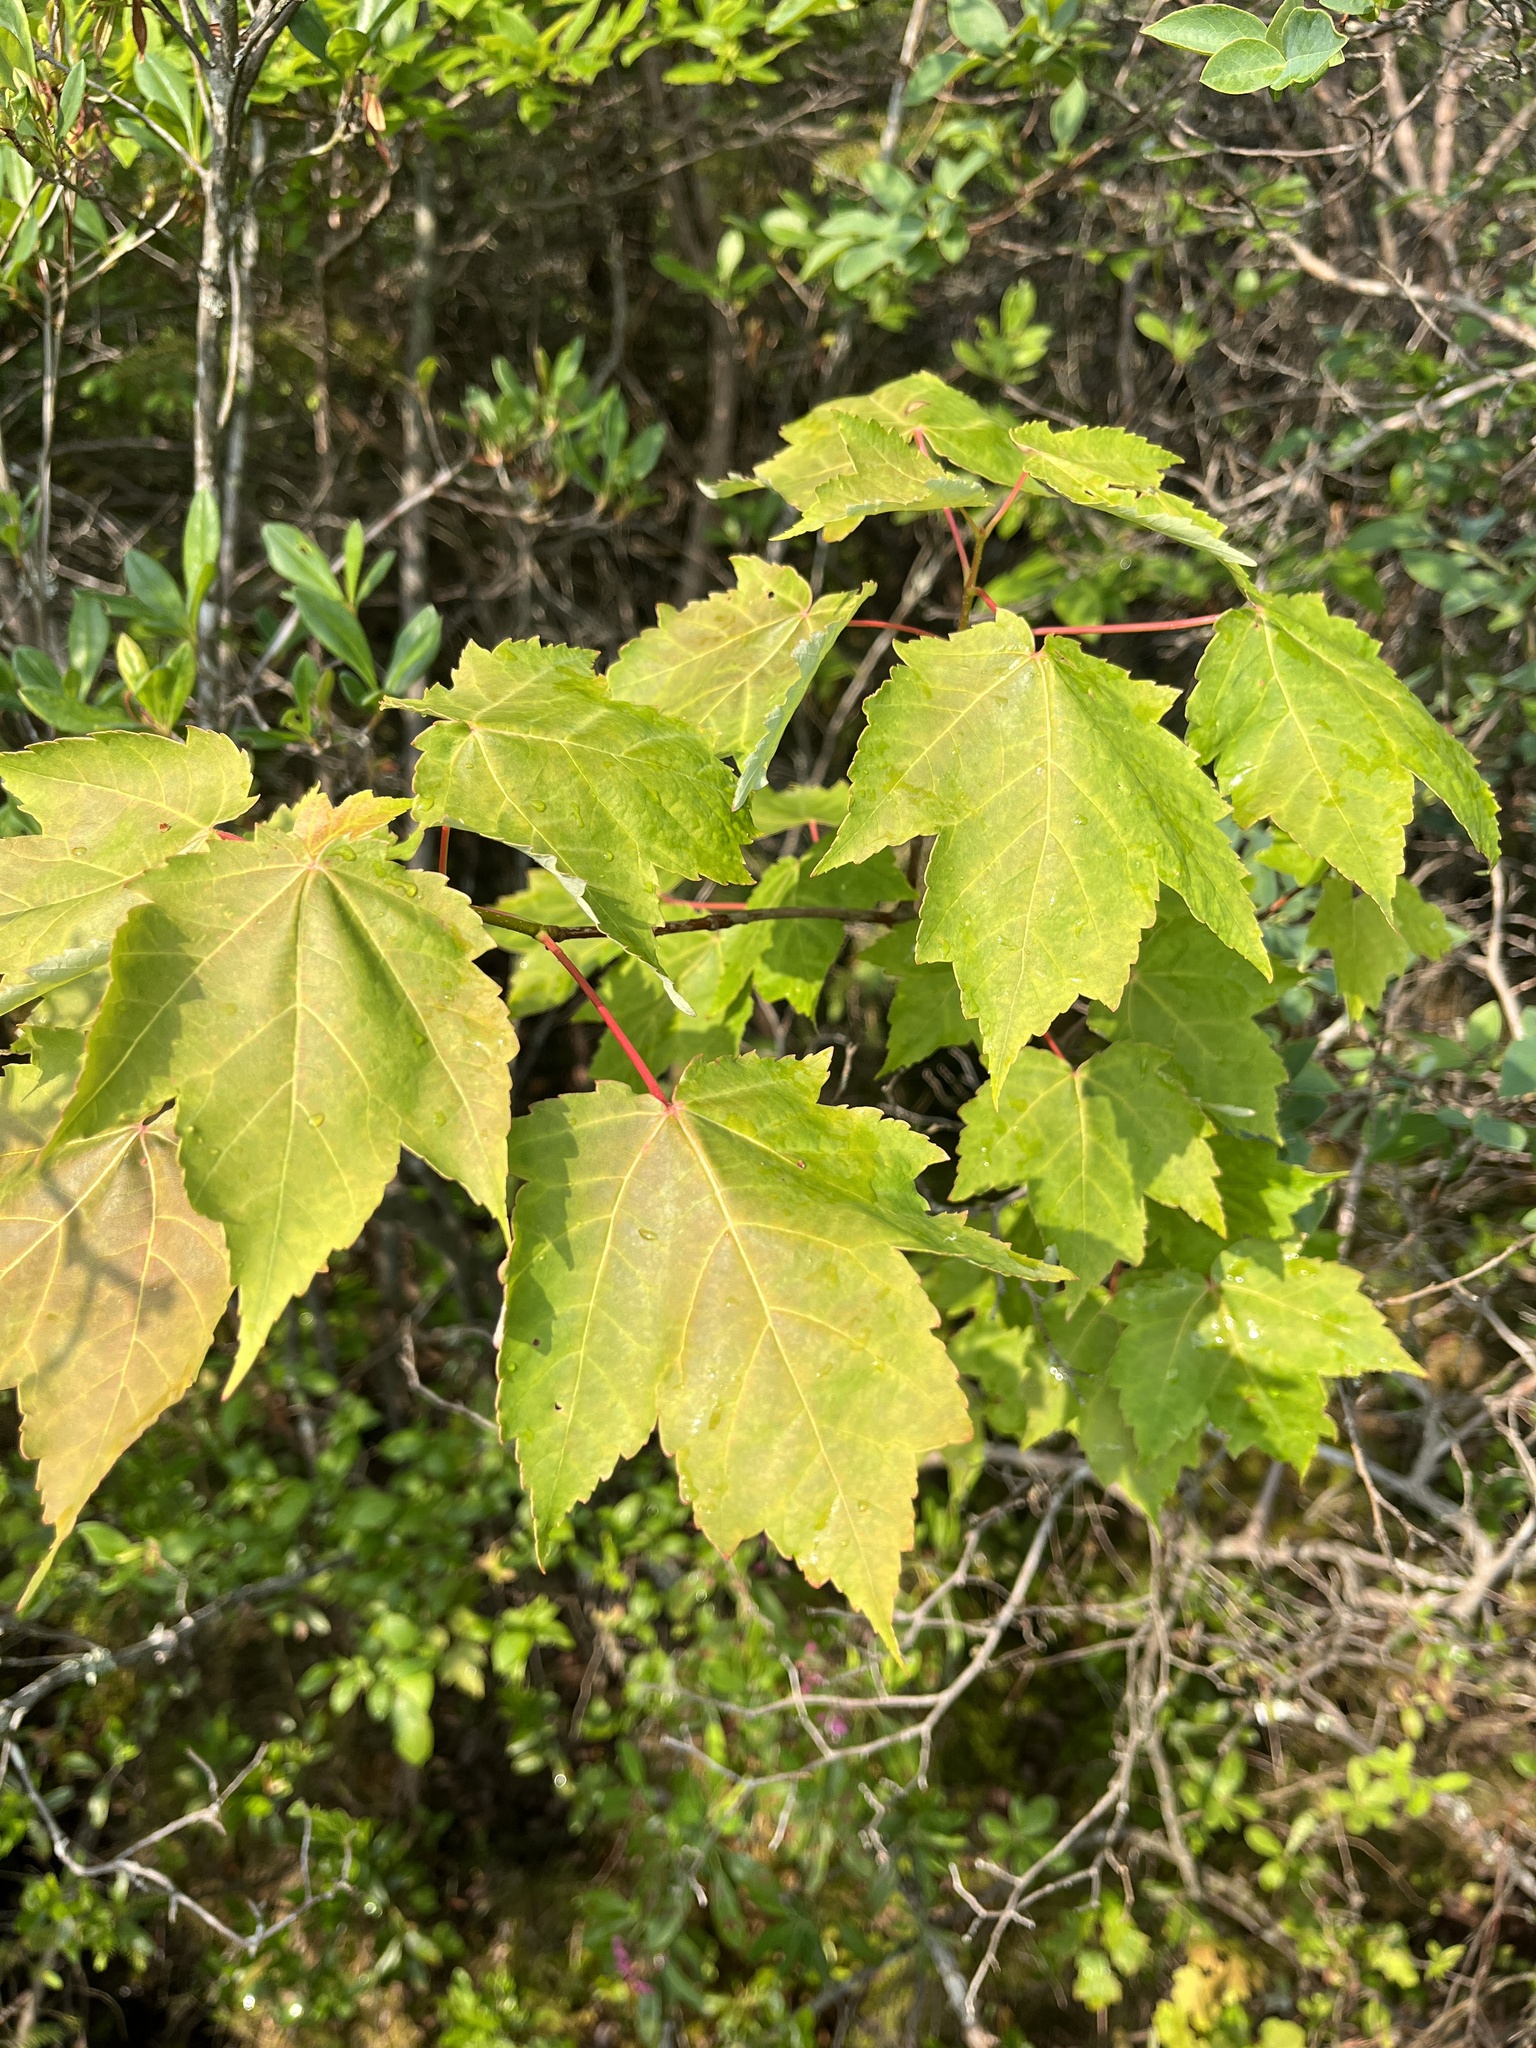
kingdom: Plantae
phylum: Tracheophyta
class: Magnoliopsida
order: Sapindales
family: Sapindaceae
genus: Acer
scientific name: Acer rubrum
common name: Red maple
